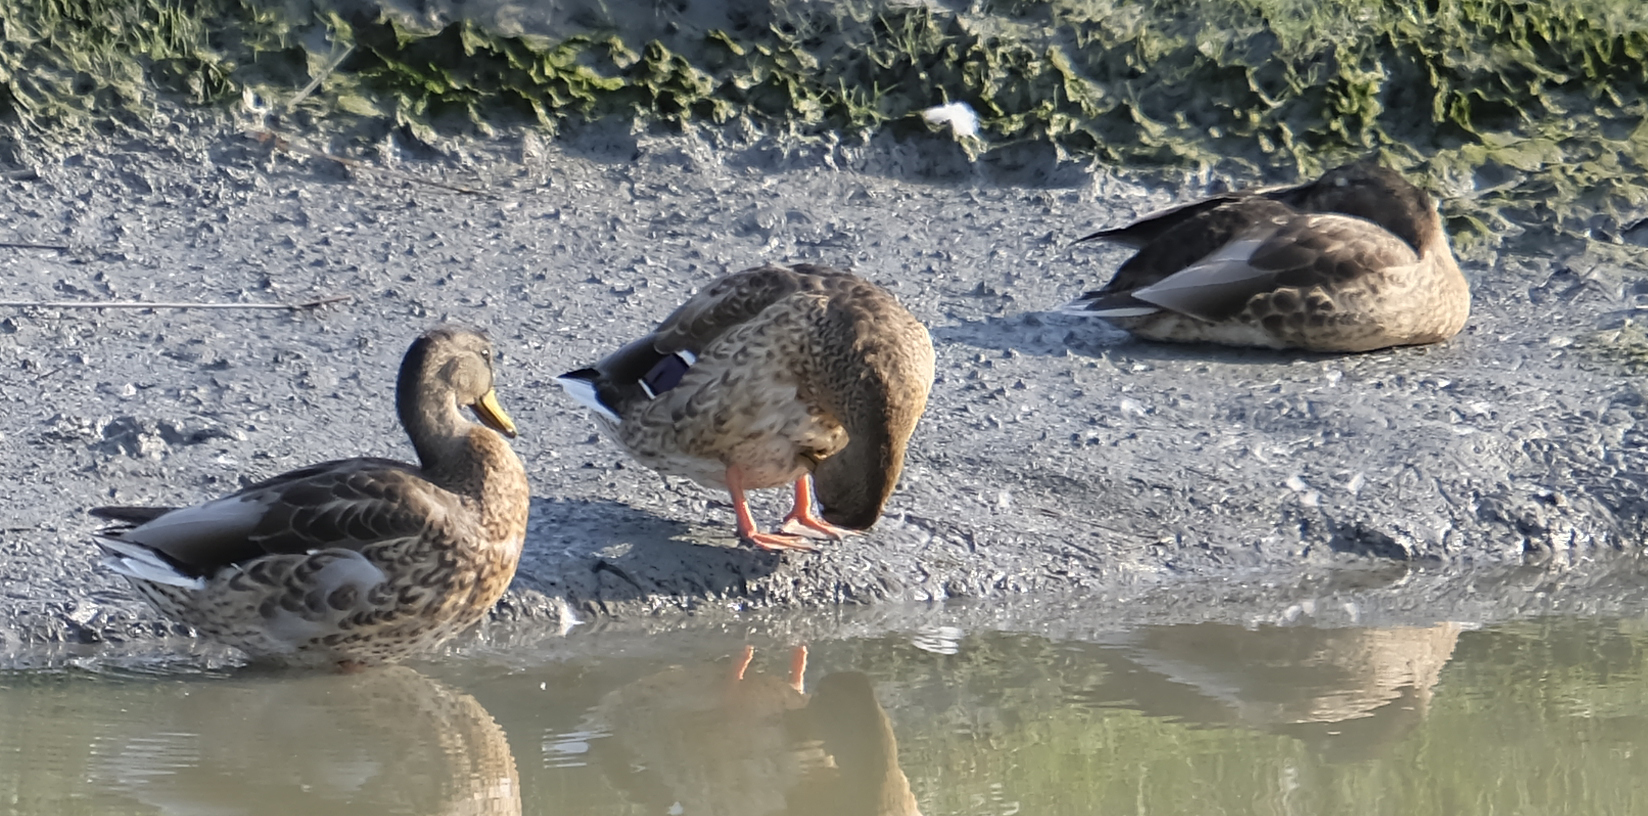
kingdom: Animalia
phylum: Chordata
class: Aves
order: Anseriformes
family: Anatidae
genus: Anas
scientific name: Anas platyrhynchos
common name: Mallard
